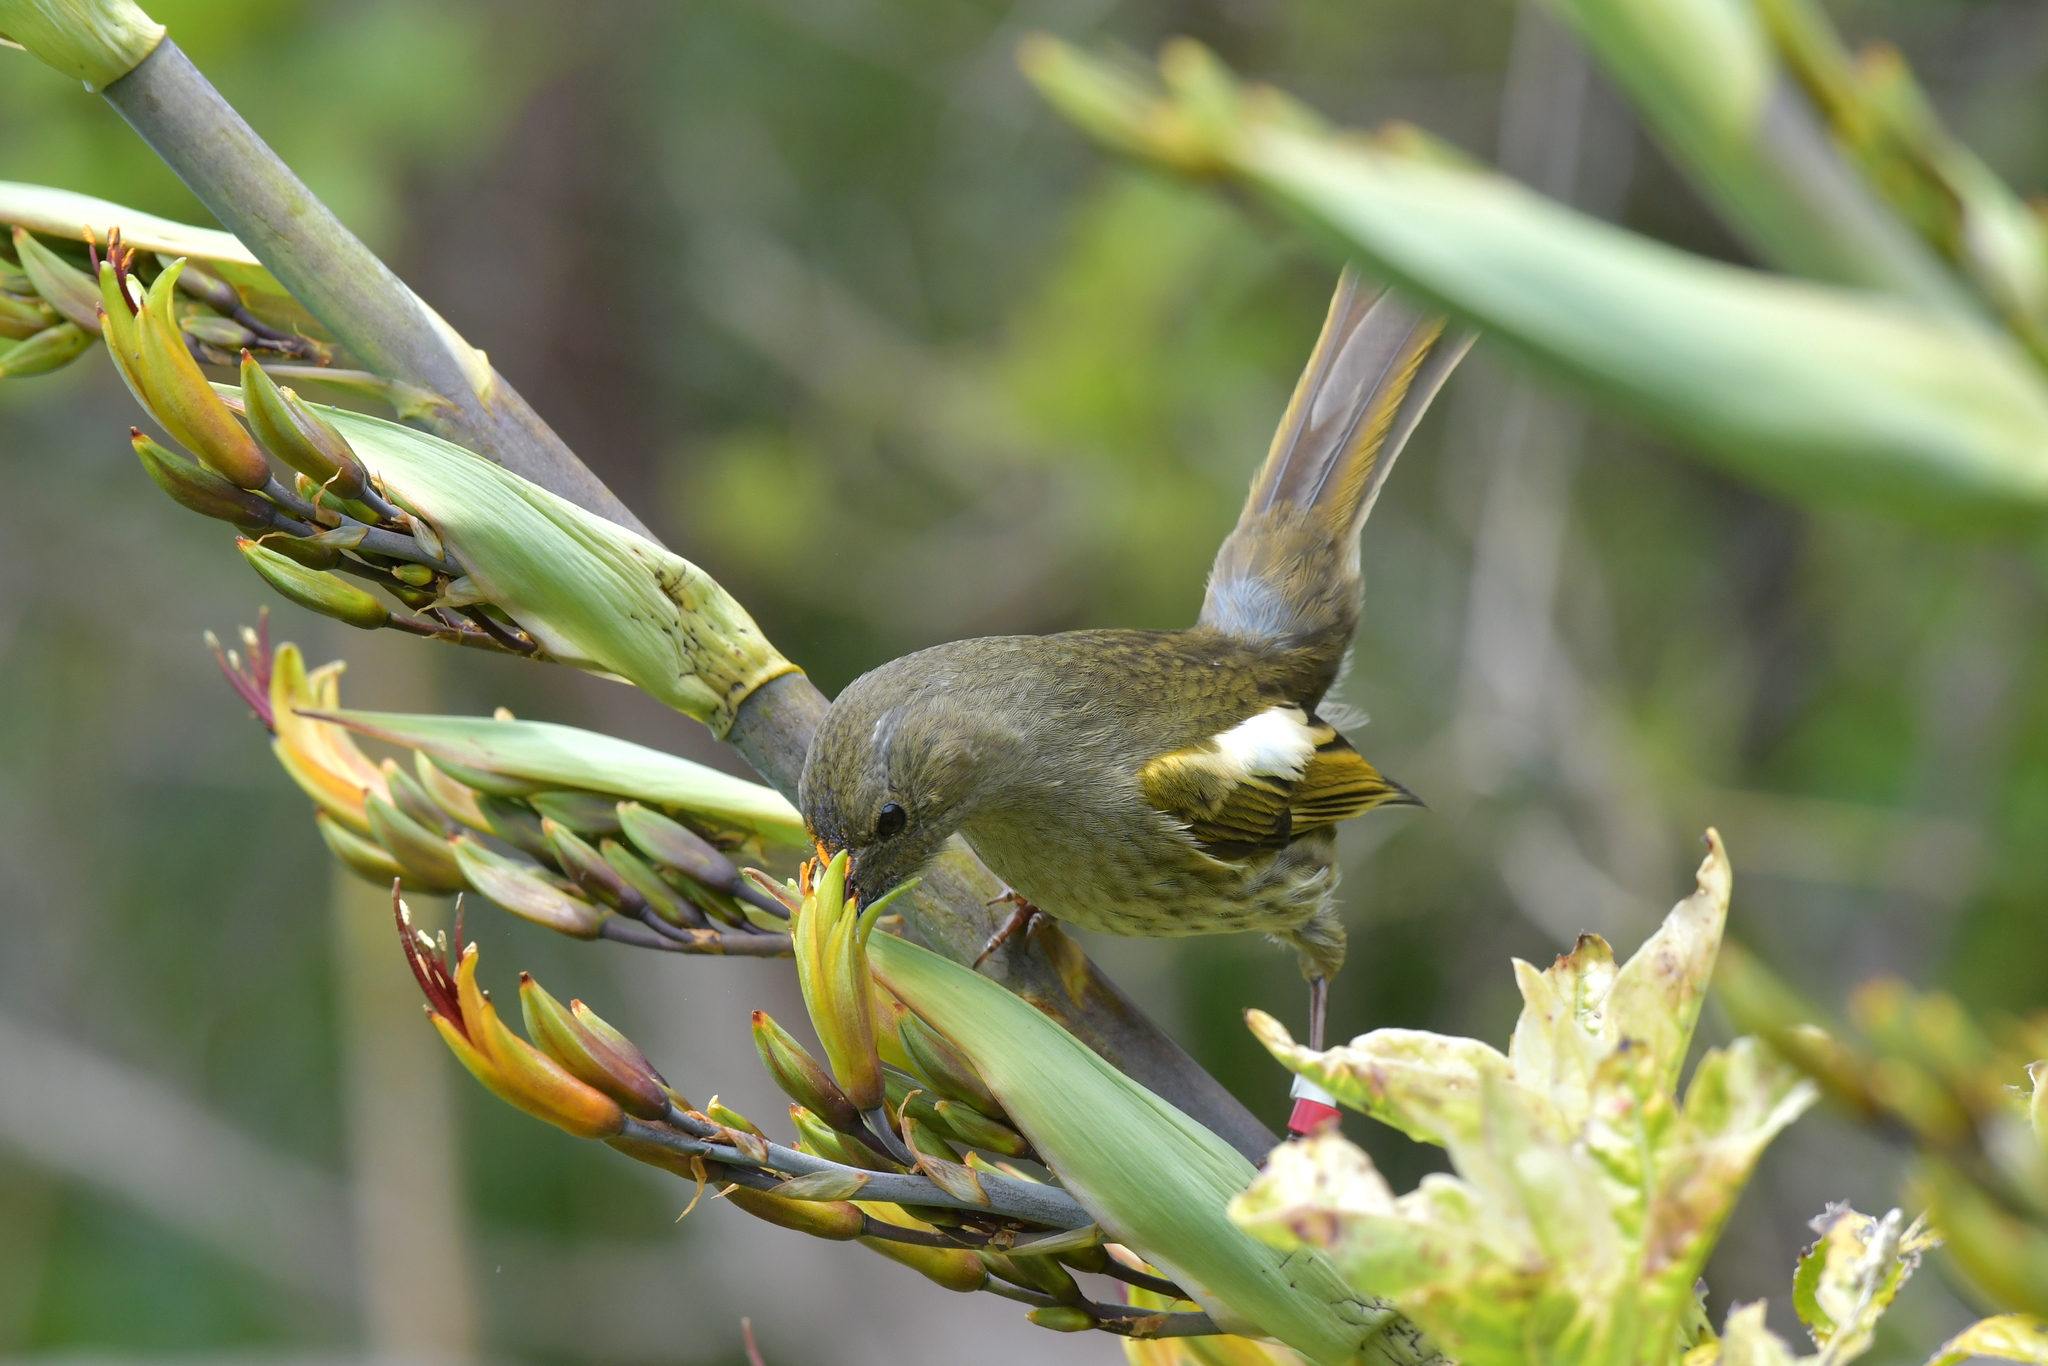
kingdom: Animalia
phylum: Chordata
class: Aves
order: Passeriformes
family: Notiomystidae
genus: Notiomystis
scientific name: Notiomystis cincta
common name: Stitchbird
